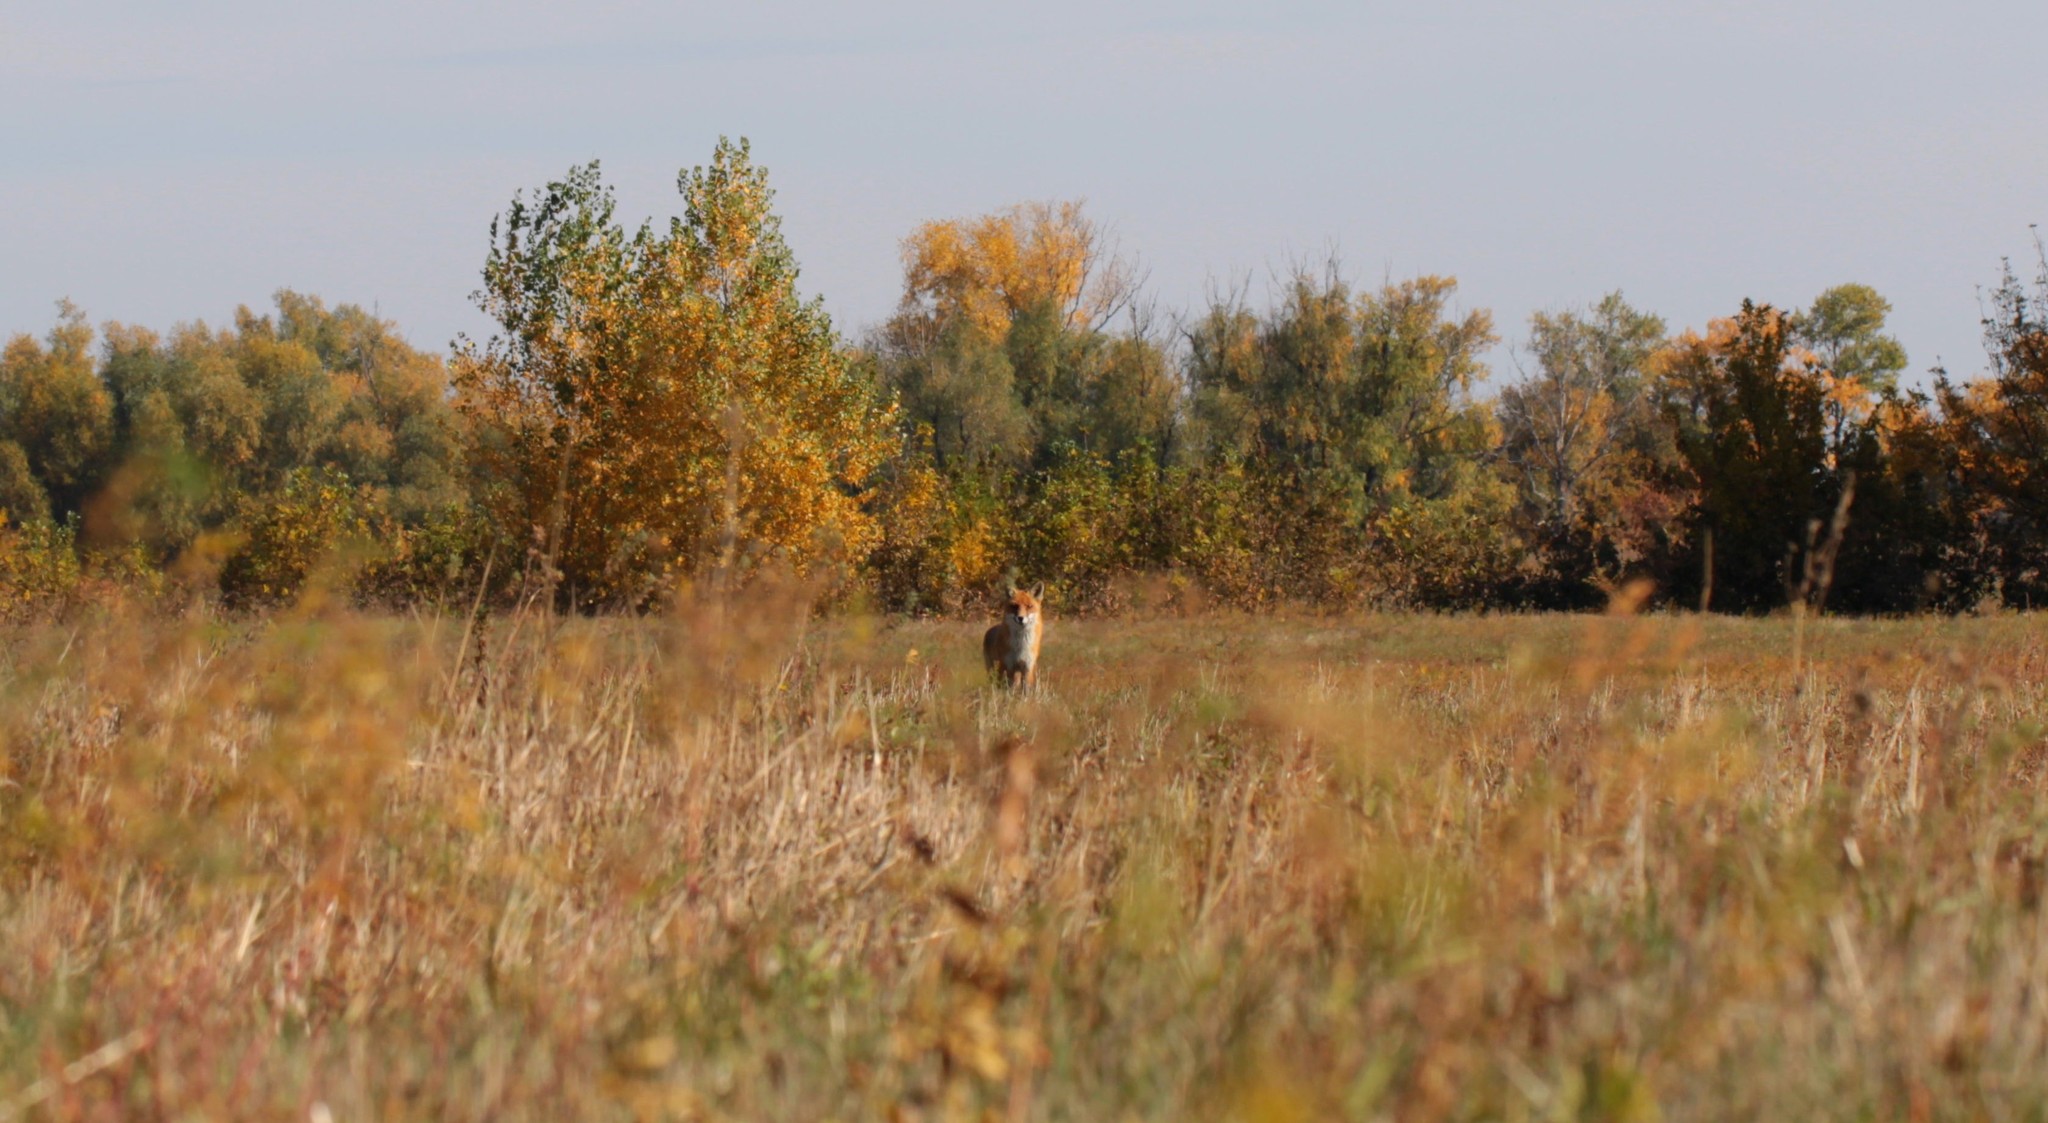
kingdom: Animalia
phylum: Chordata
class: Mammalia
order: Carnivora
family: Canidae
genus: Vulpes
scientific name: Vulpes vulpes
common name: Red fox
